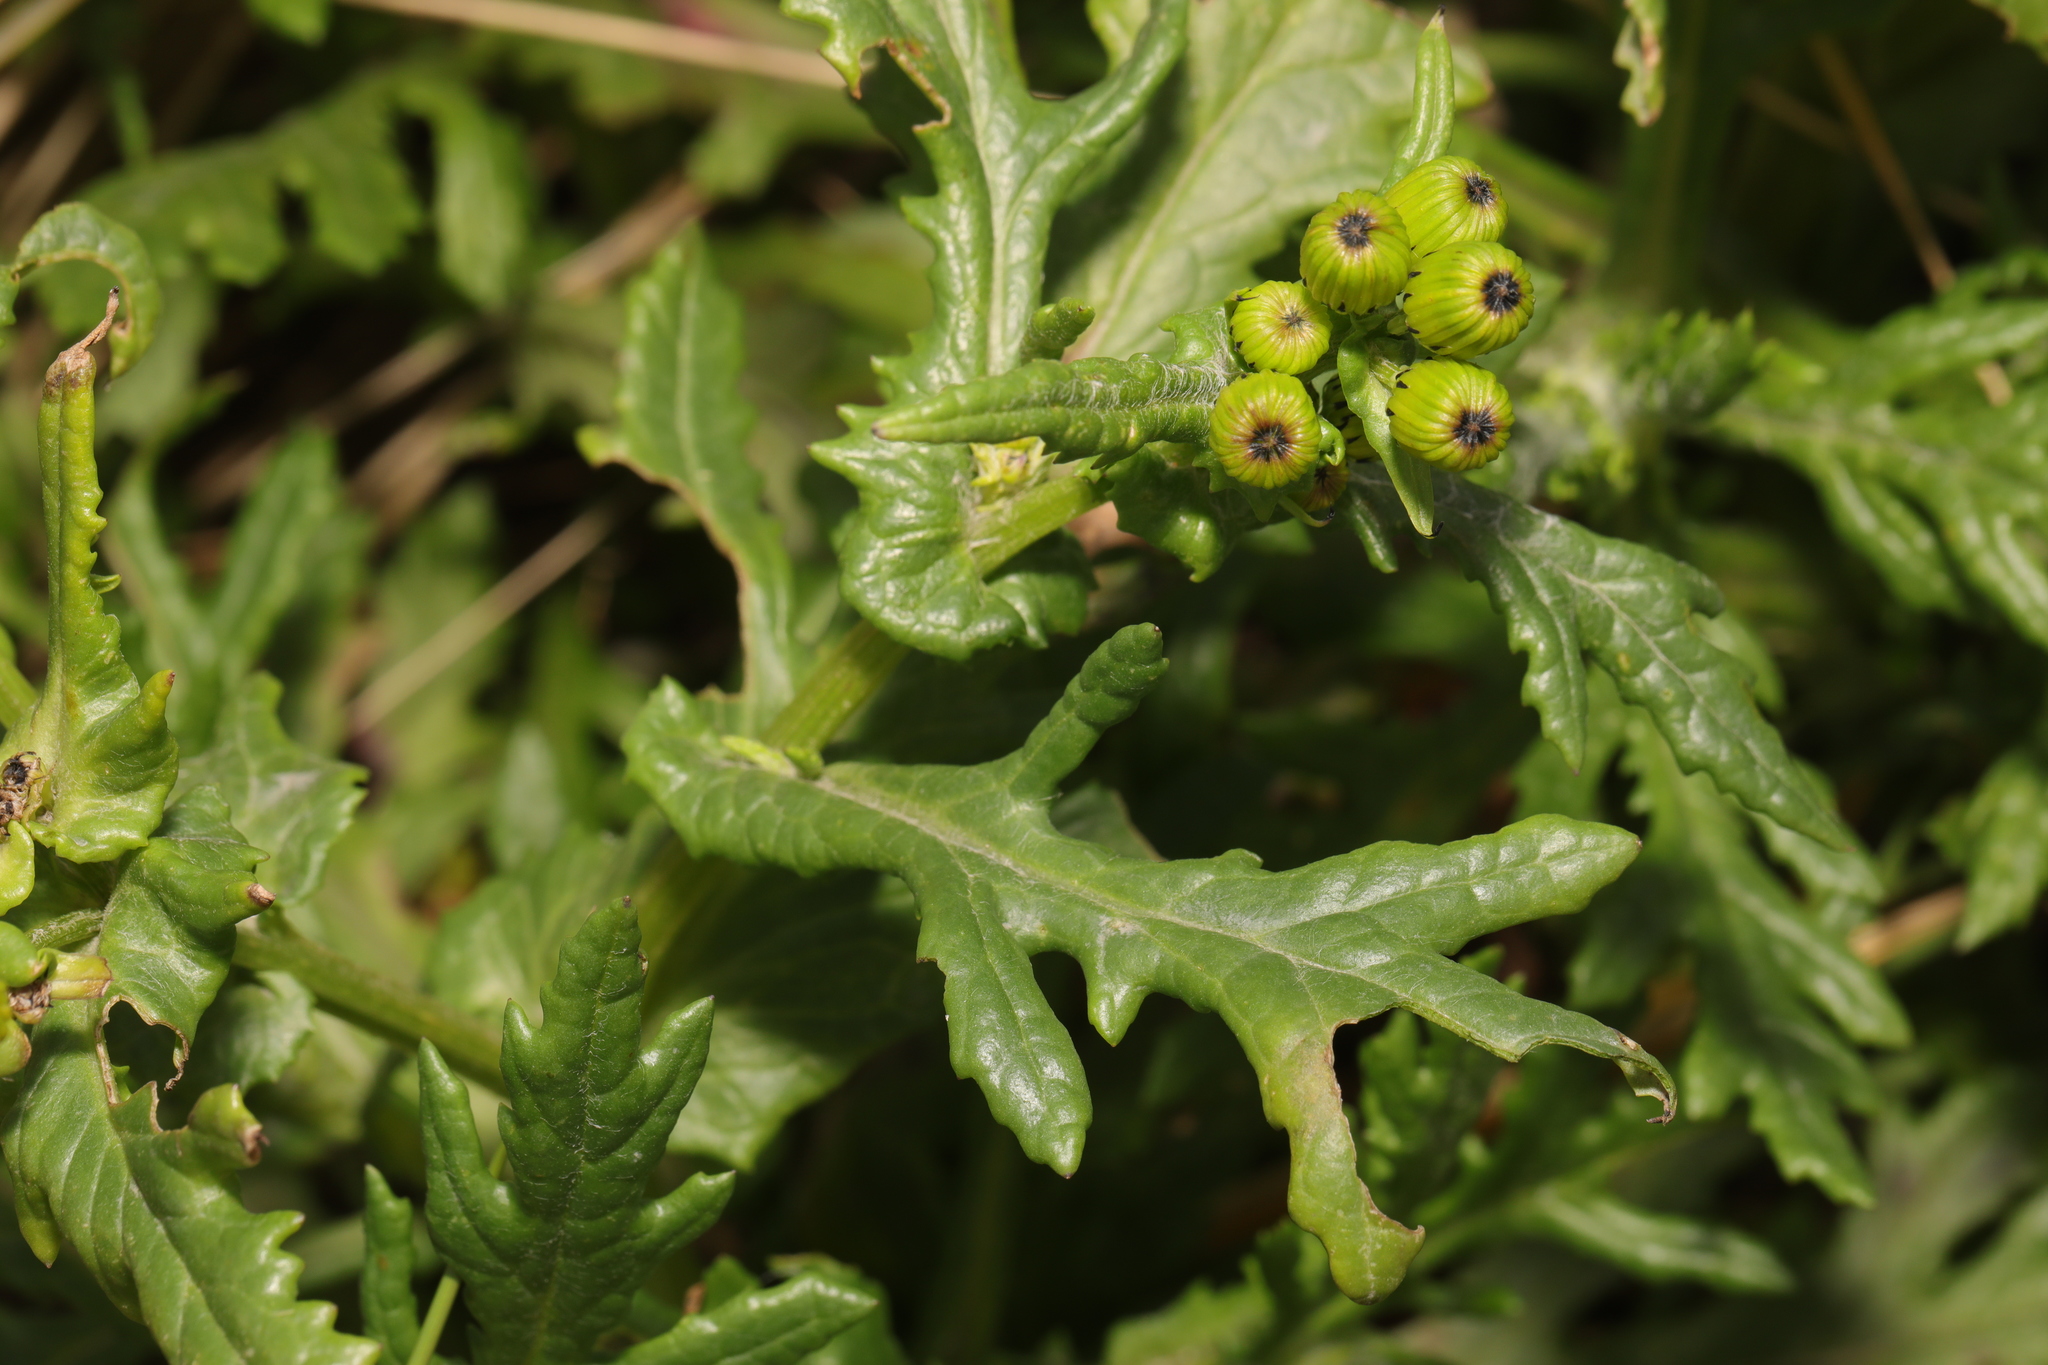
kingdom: Plantae
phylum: Tracheophyta
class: Magnoliopsida
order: Asterales
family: Asteraceae
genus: Senecio
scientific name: Senecio squalidus
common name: Oxford ragwort
